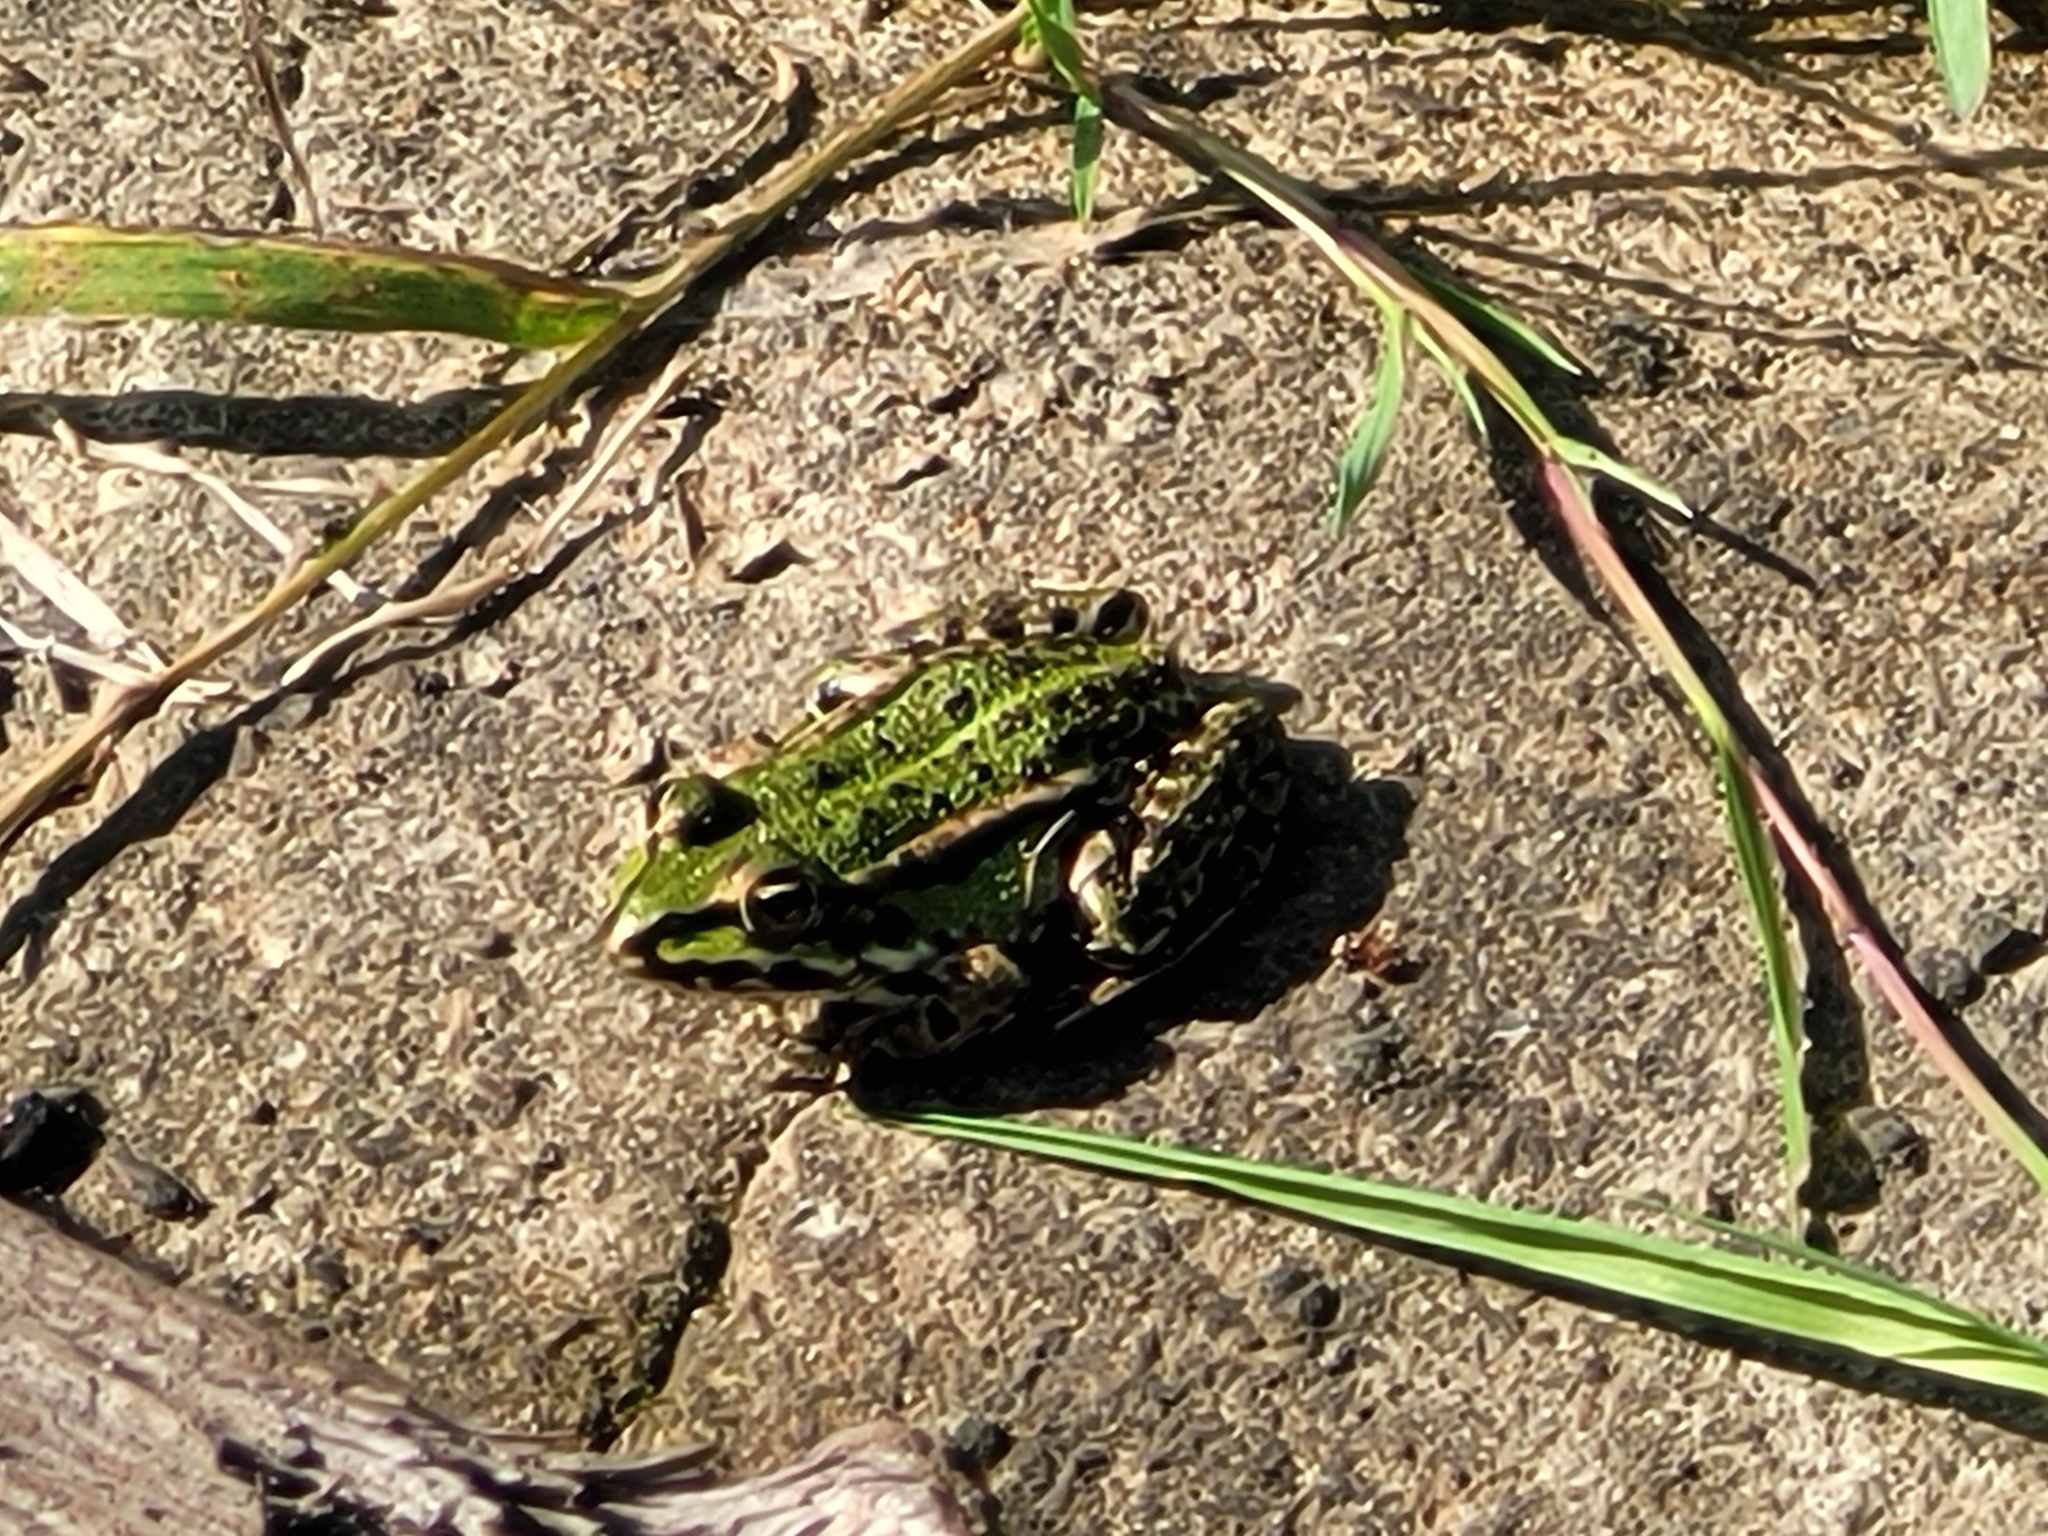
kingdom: Animalia
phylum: Chordata
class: Amphibia
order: Anura
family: Ranidae
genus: Pelophylax
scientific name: Pelophylax
